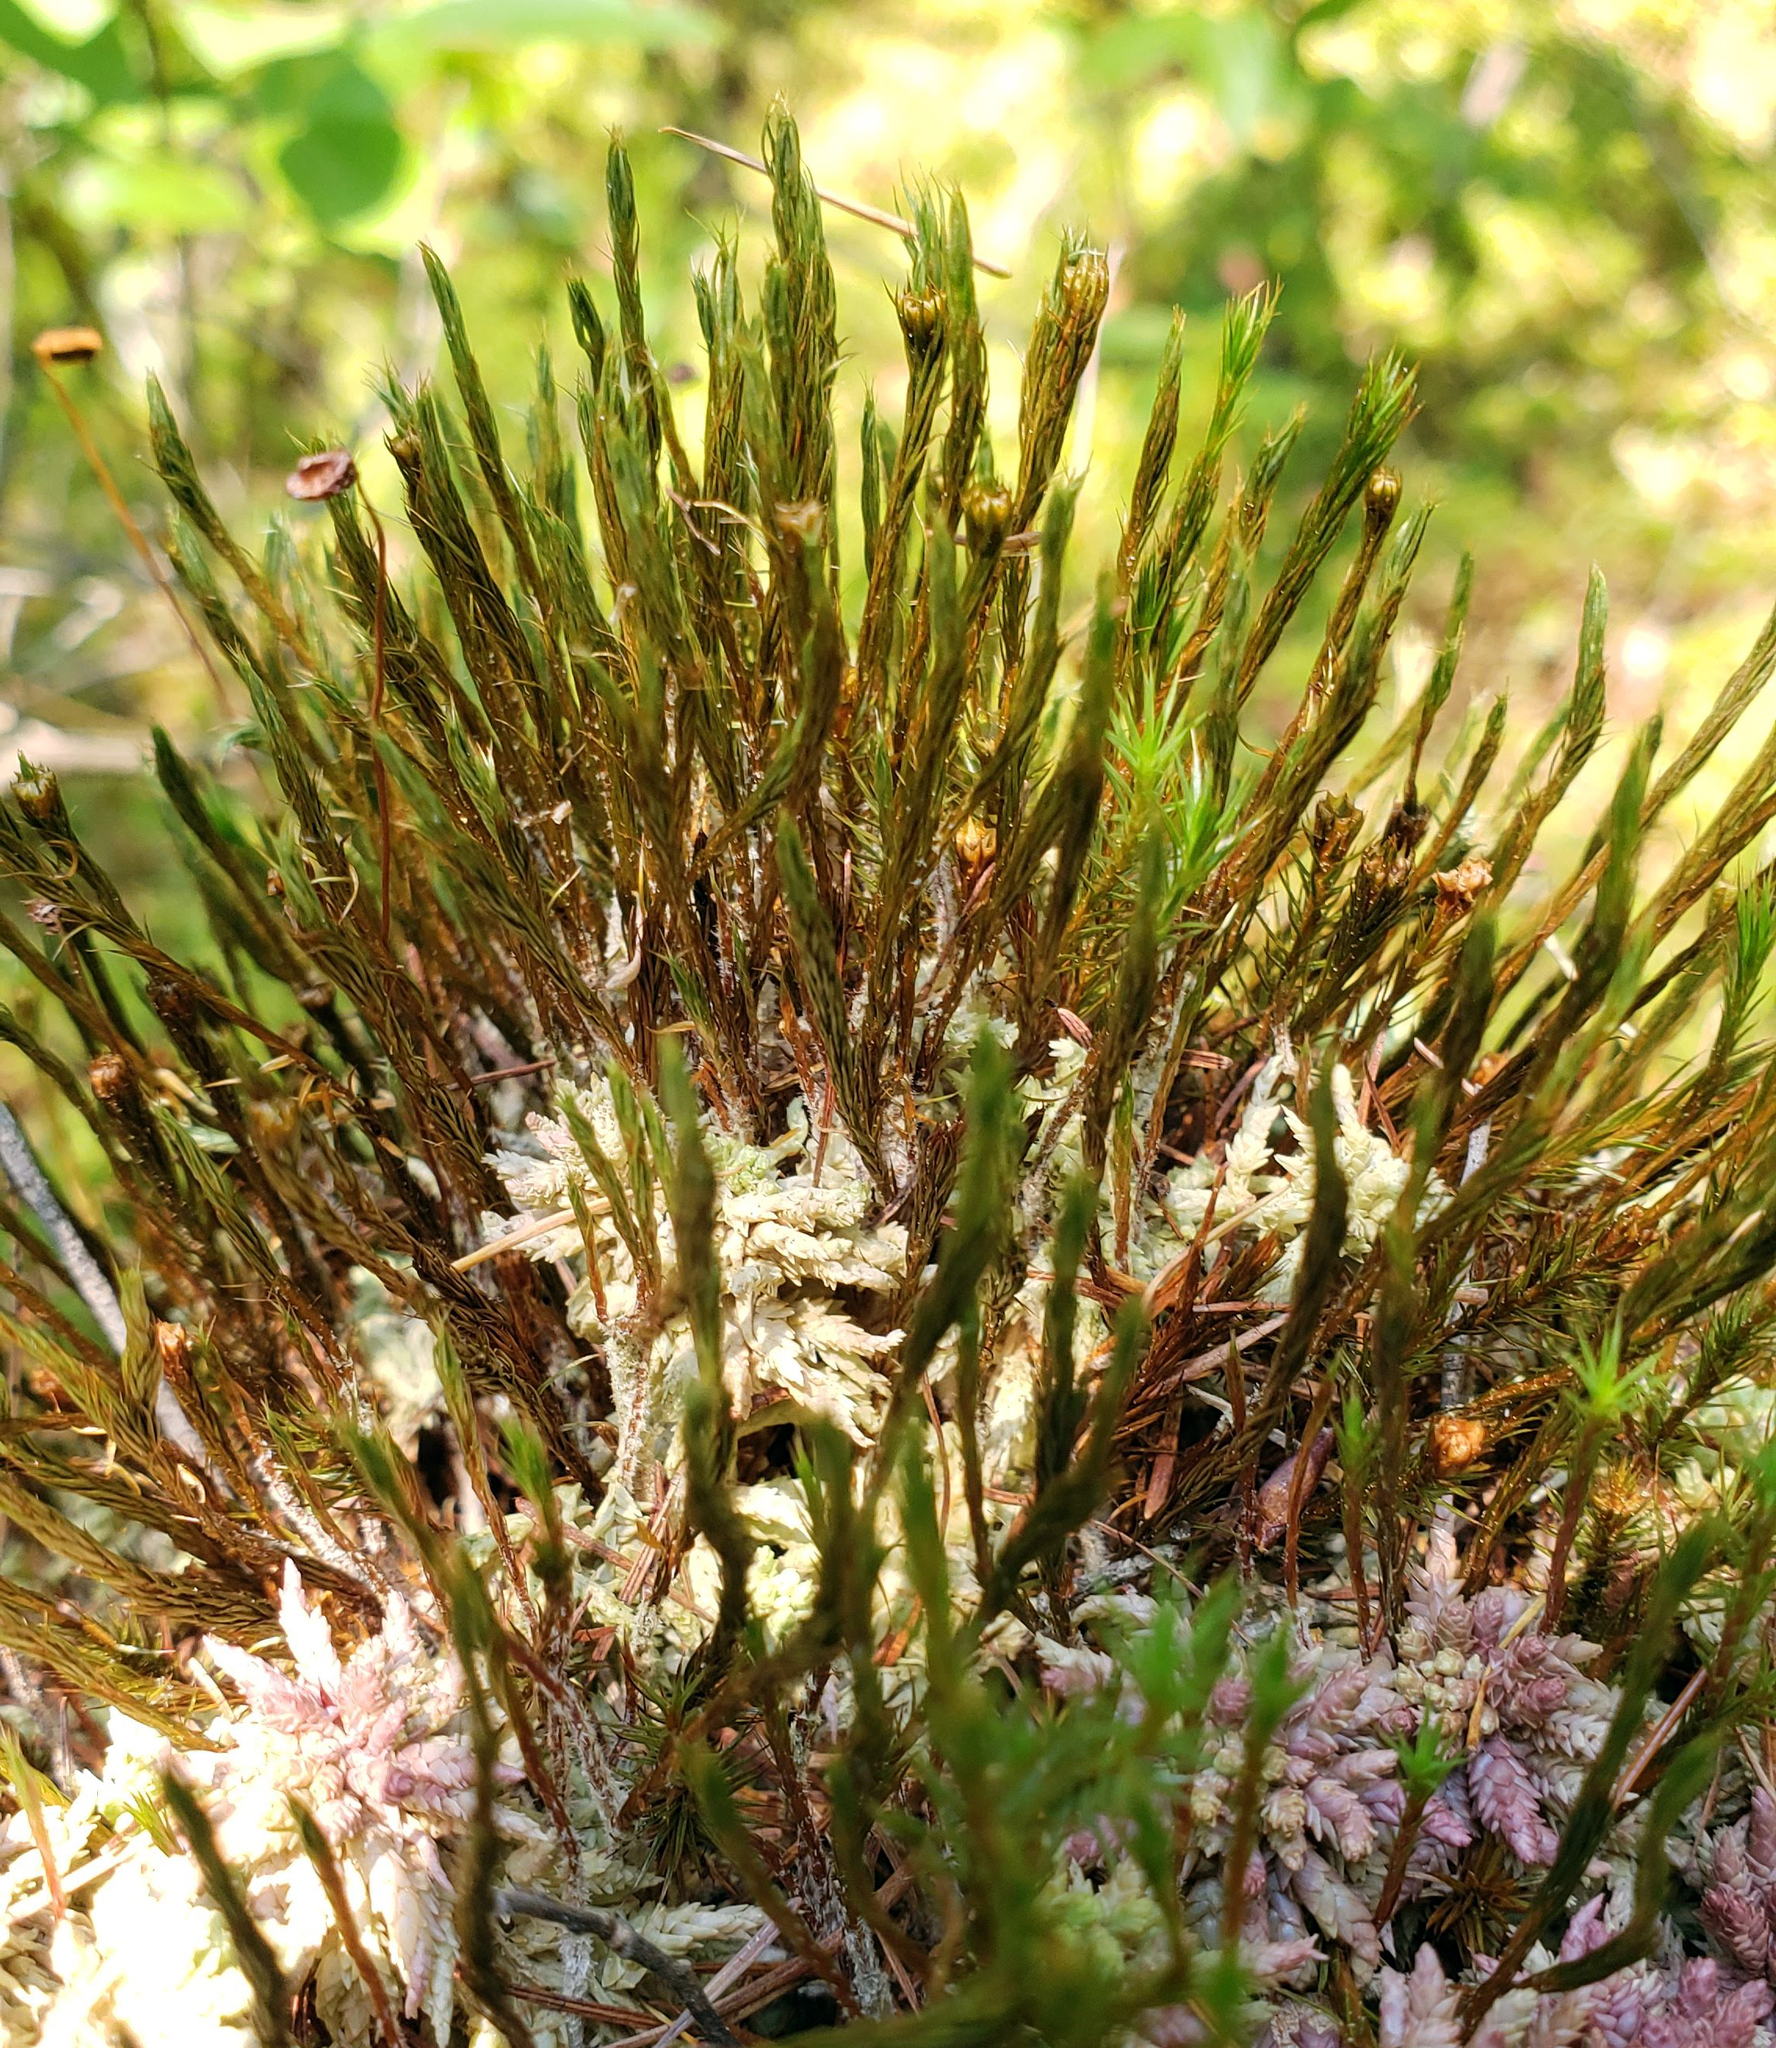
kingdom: Plantae
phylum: Bryophyta
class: Polytrichopsida
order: Polytrichales
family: Polytrichaceae
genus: Polytrichum
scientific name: Polytrichum strictum
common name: Bog haircap moss
